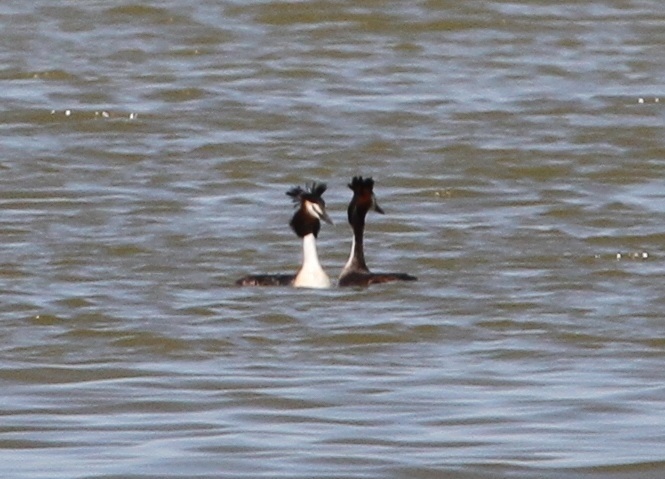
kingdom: Animalia
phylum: Chordata
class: Aves
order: Podicipediformes
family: Podicipedidae
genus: Podiceps
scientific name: Podiceps cristatus
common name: Great crested grebe
